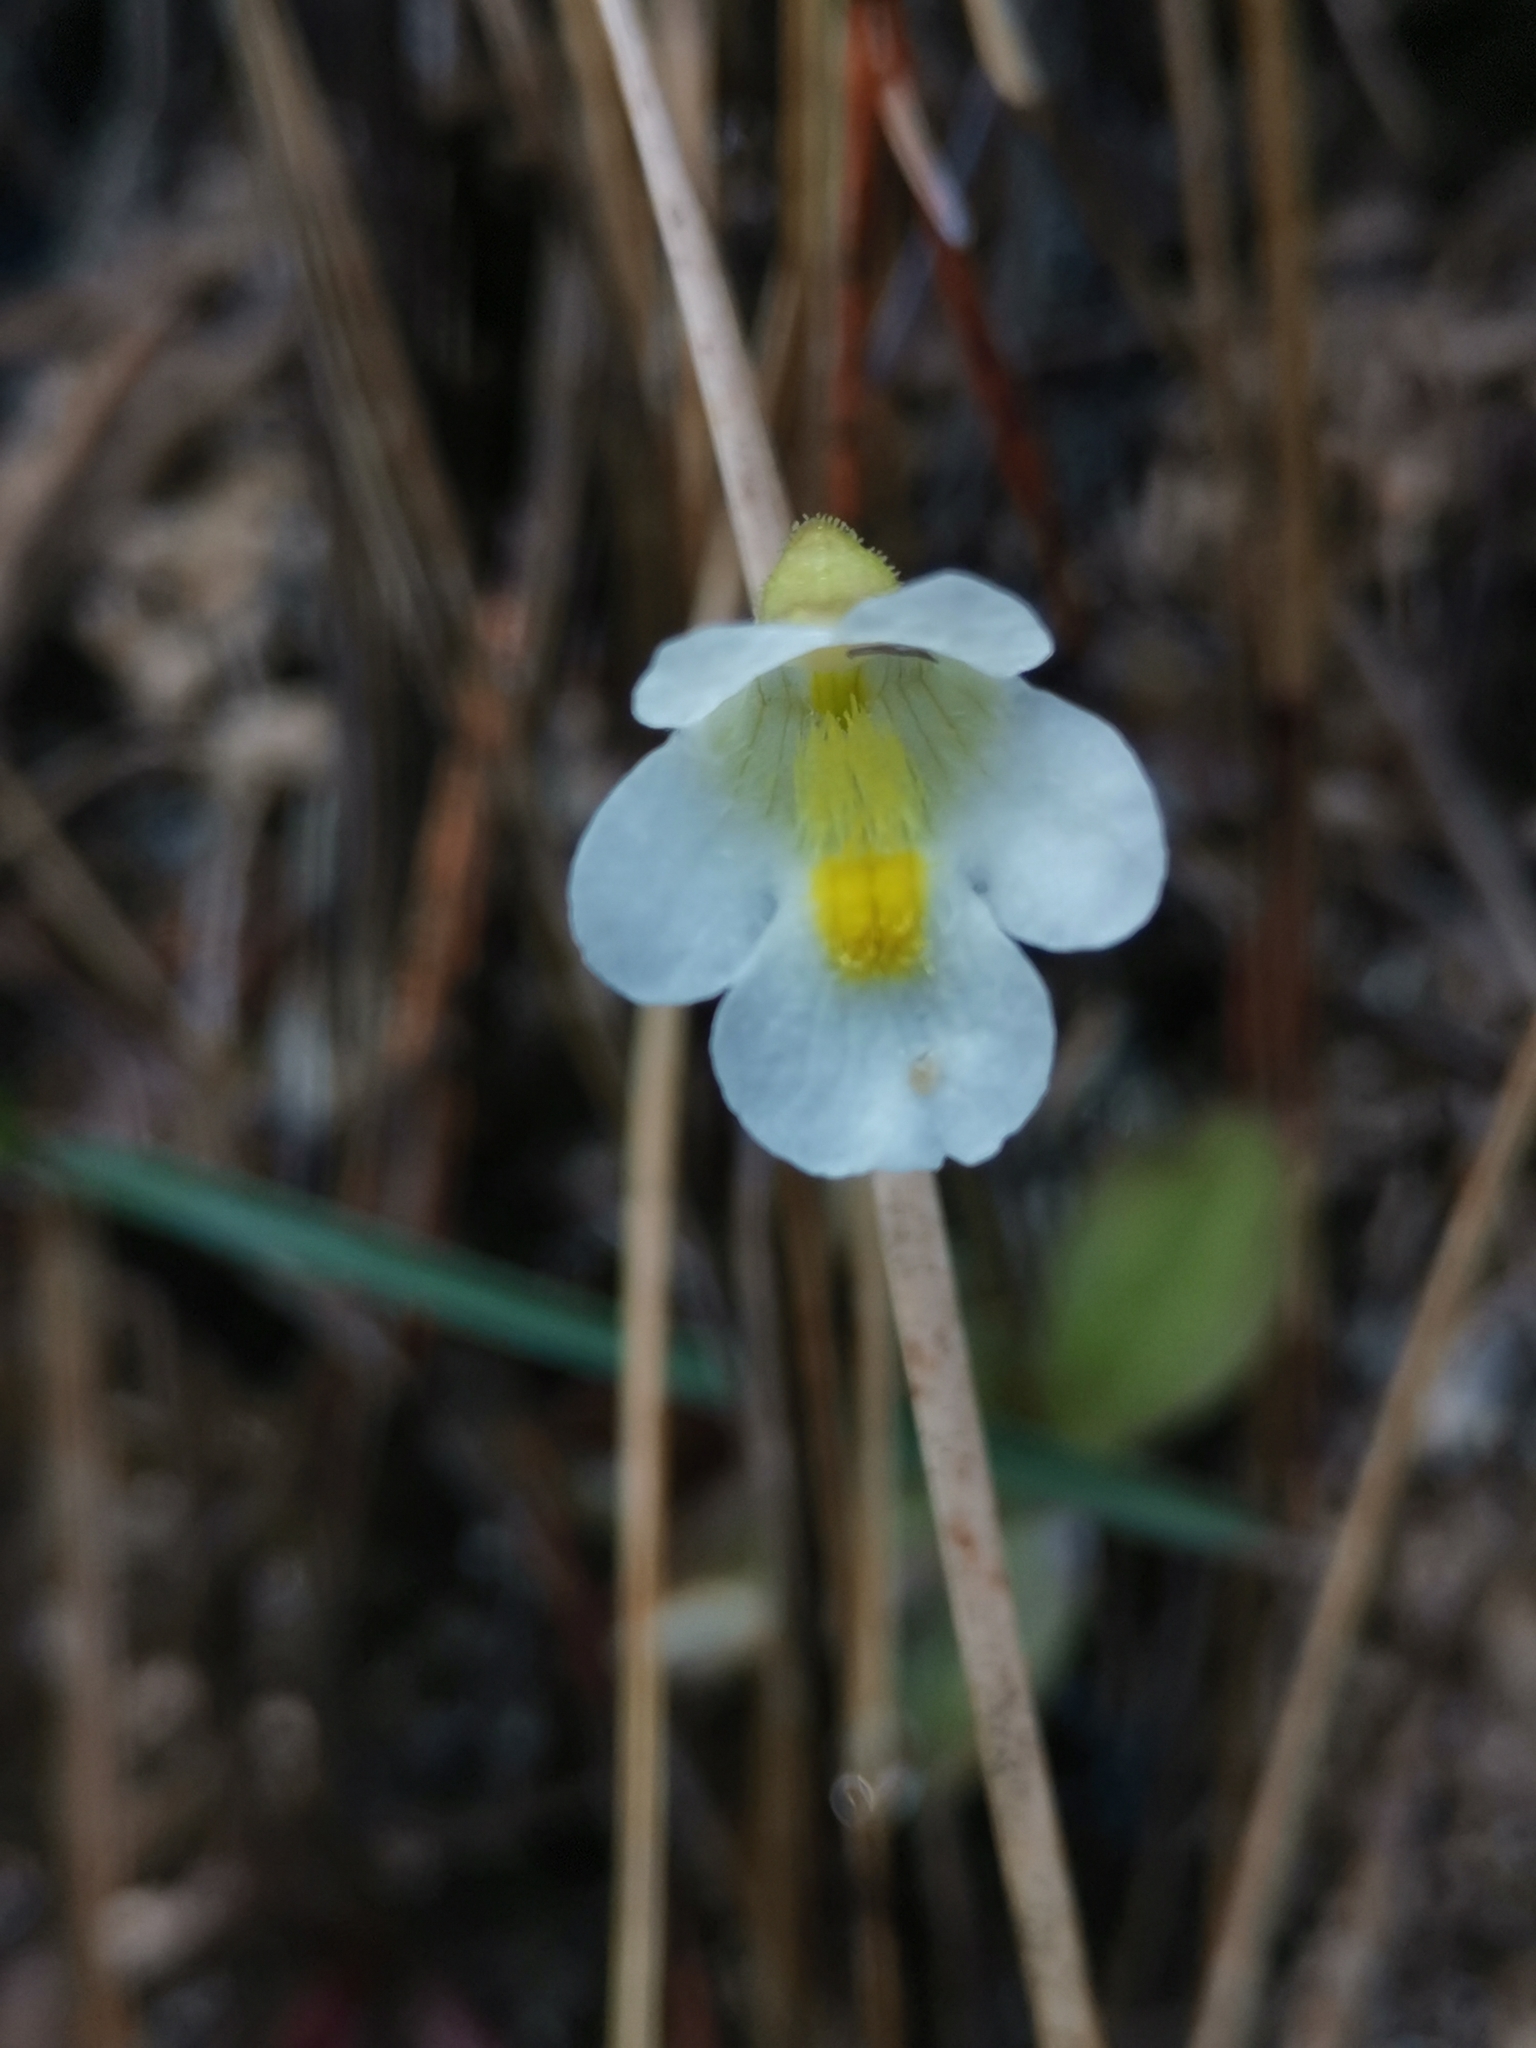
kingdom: Plantae
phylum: Tracheophyta
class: Magnoliopsida
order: Lamiales
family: Lentibulariaceae
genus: Pinguicula
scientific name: Pinguicula alpina
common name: Alpine butterwort
